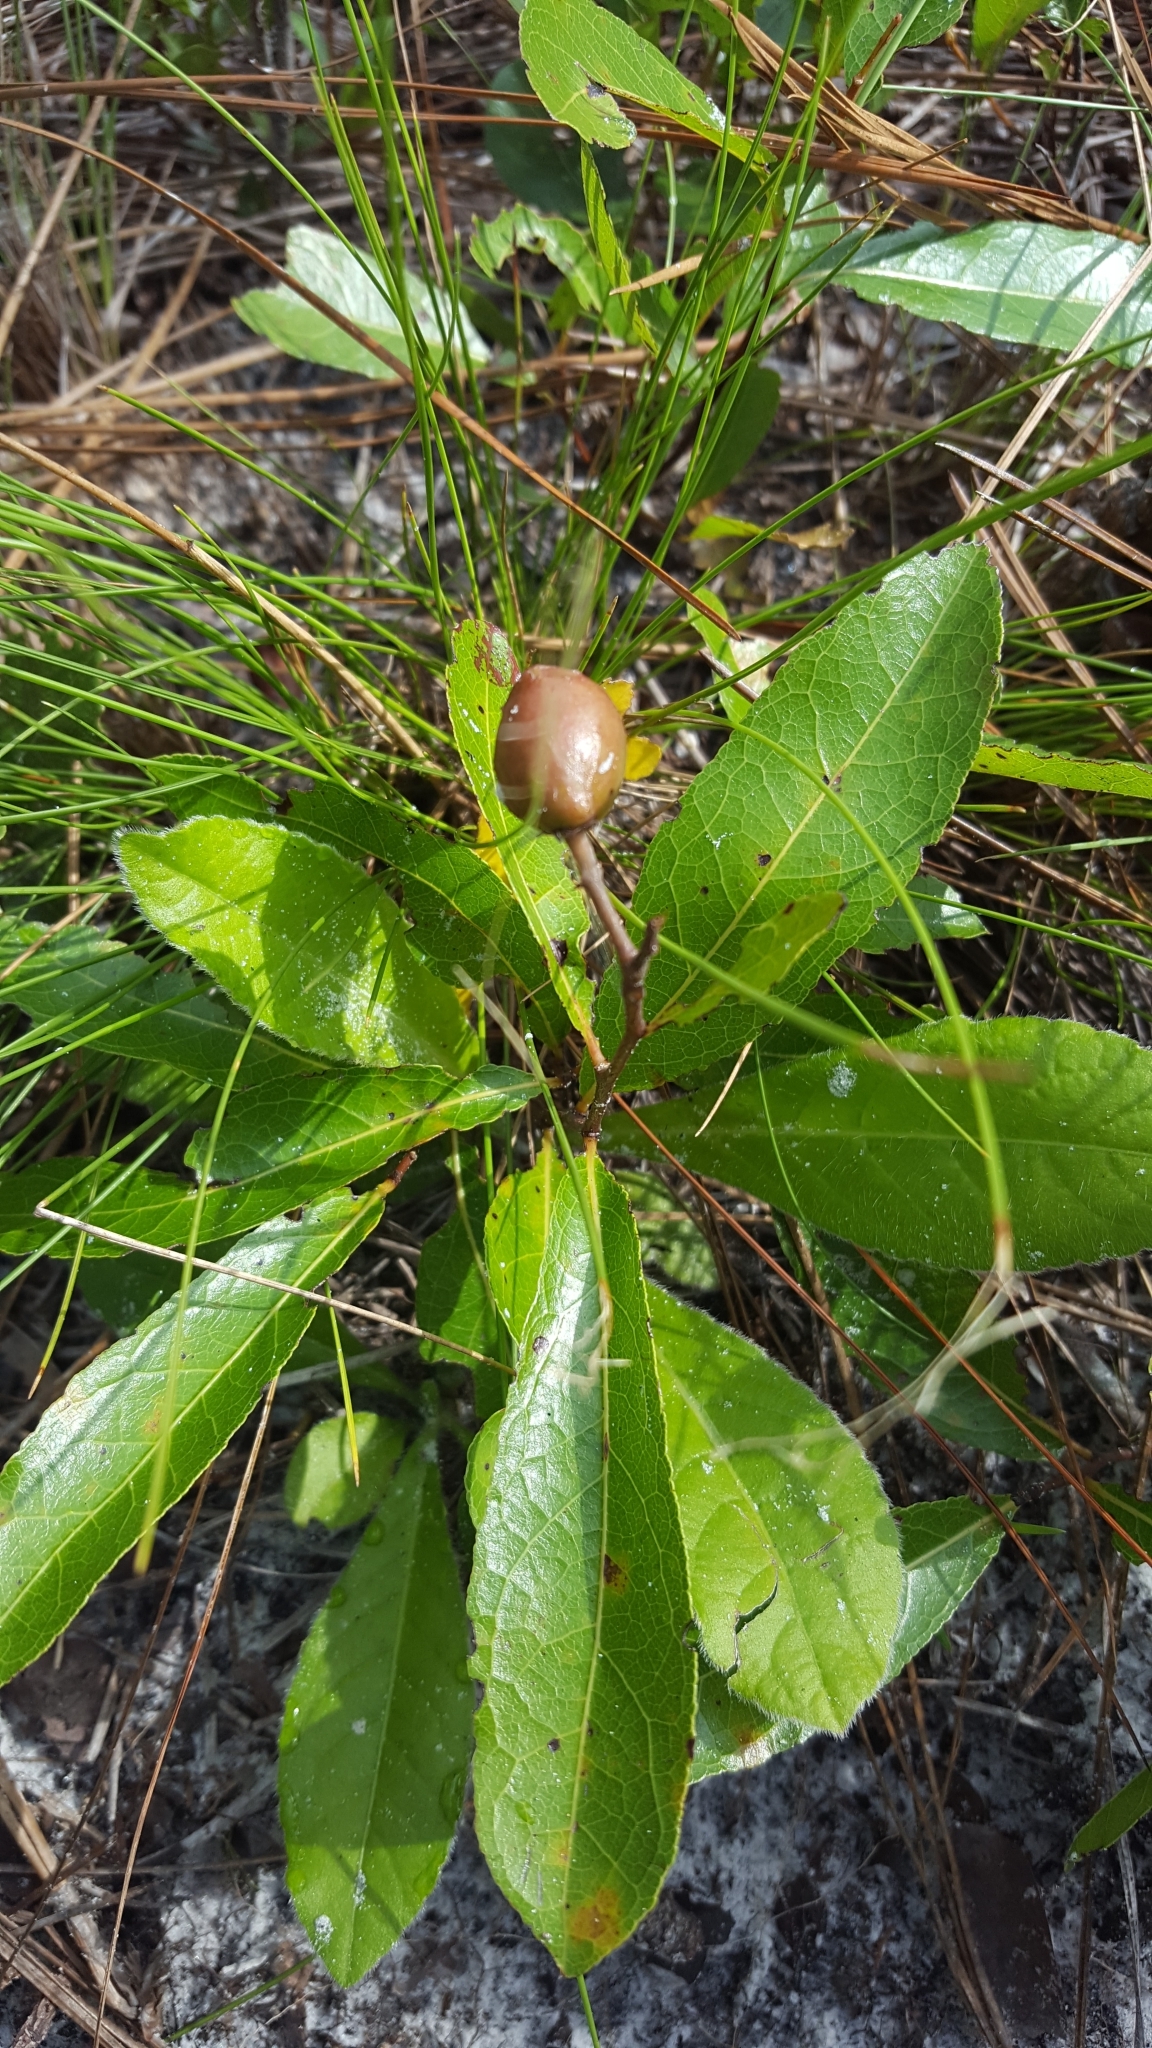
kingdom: Plantae
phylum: Tracheophyta
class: Magnoliopsida
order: Malpighiales
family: Chrysobalanaceae
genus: Geobalanus
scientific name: Geobalanus oblongifolius
